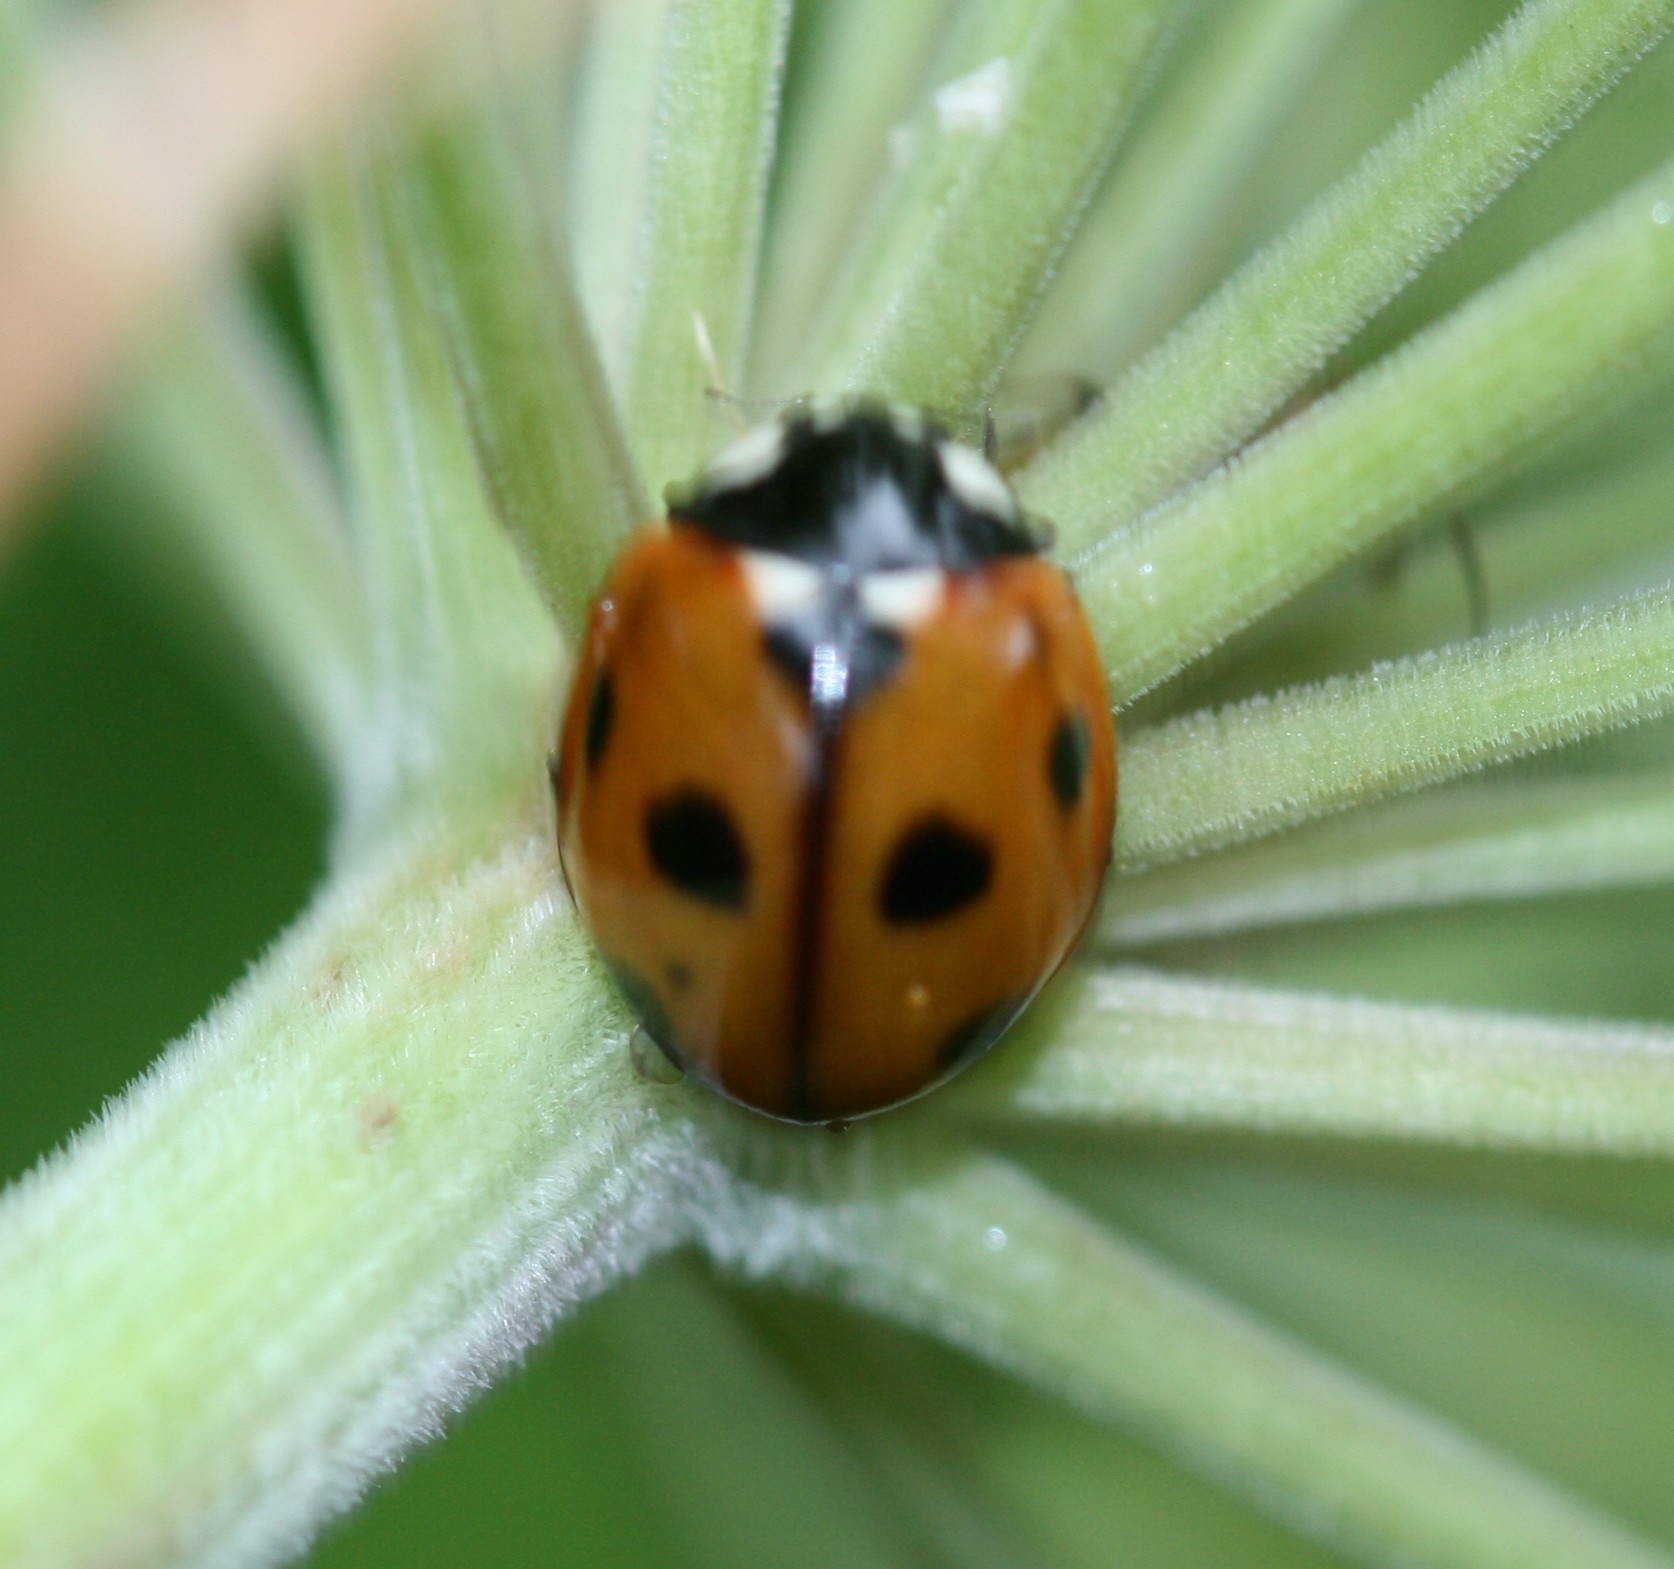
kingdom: Animalia
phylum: Arthropoda
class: Insecta
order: Coleoptera
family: Coccinellidae
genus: Coccinella
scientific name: Coccinella septempunctata
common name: Sevenspotted lady beetle
